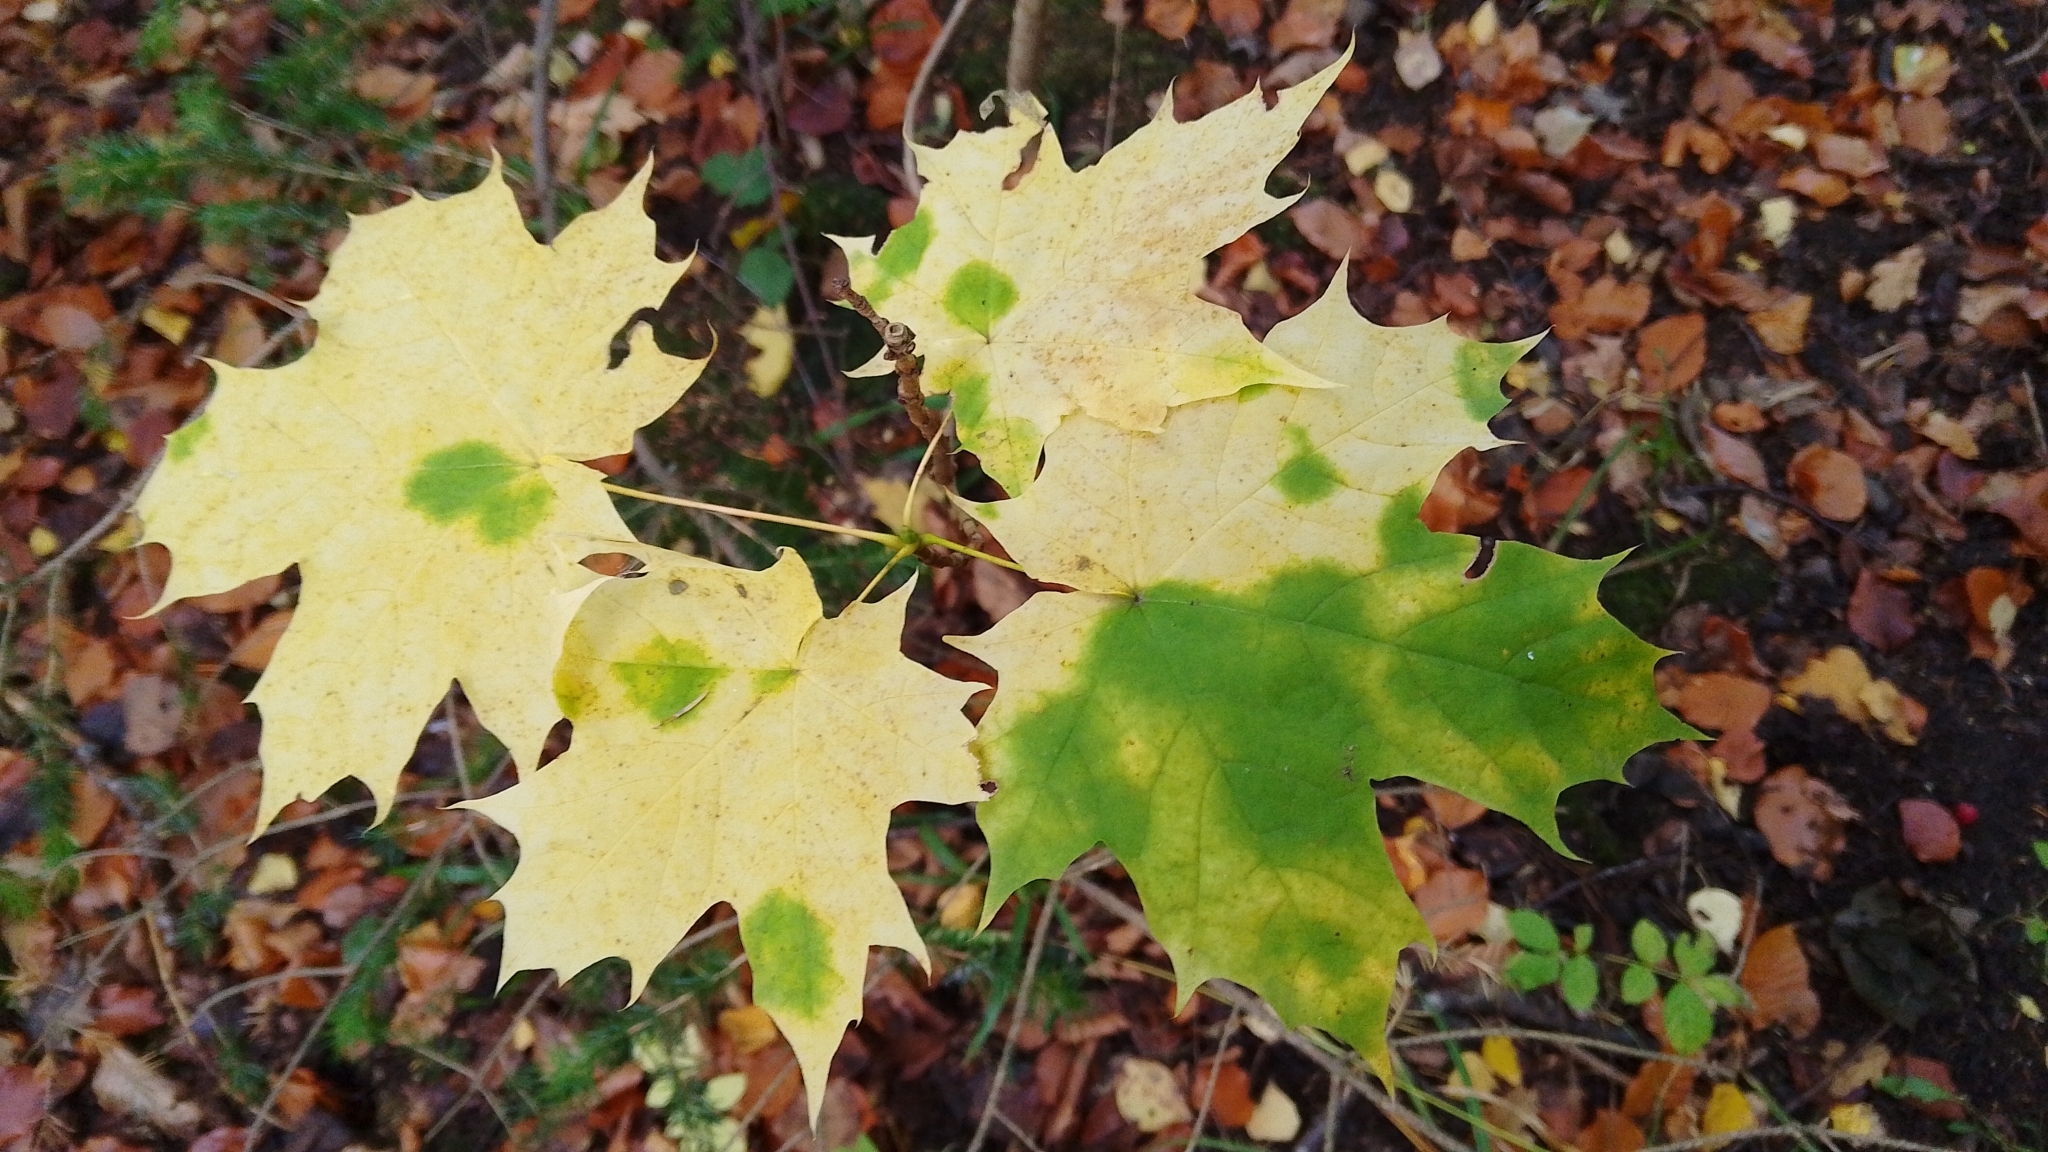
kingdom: Plantae
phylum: Tracheophyta
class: Magnoliopsida
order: Sapindales
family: Sapindaceae
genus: Acer
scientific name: Acer platanoides
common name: Norway maple
